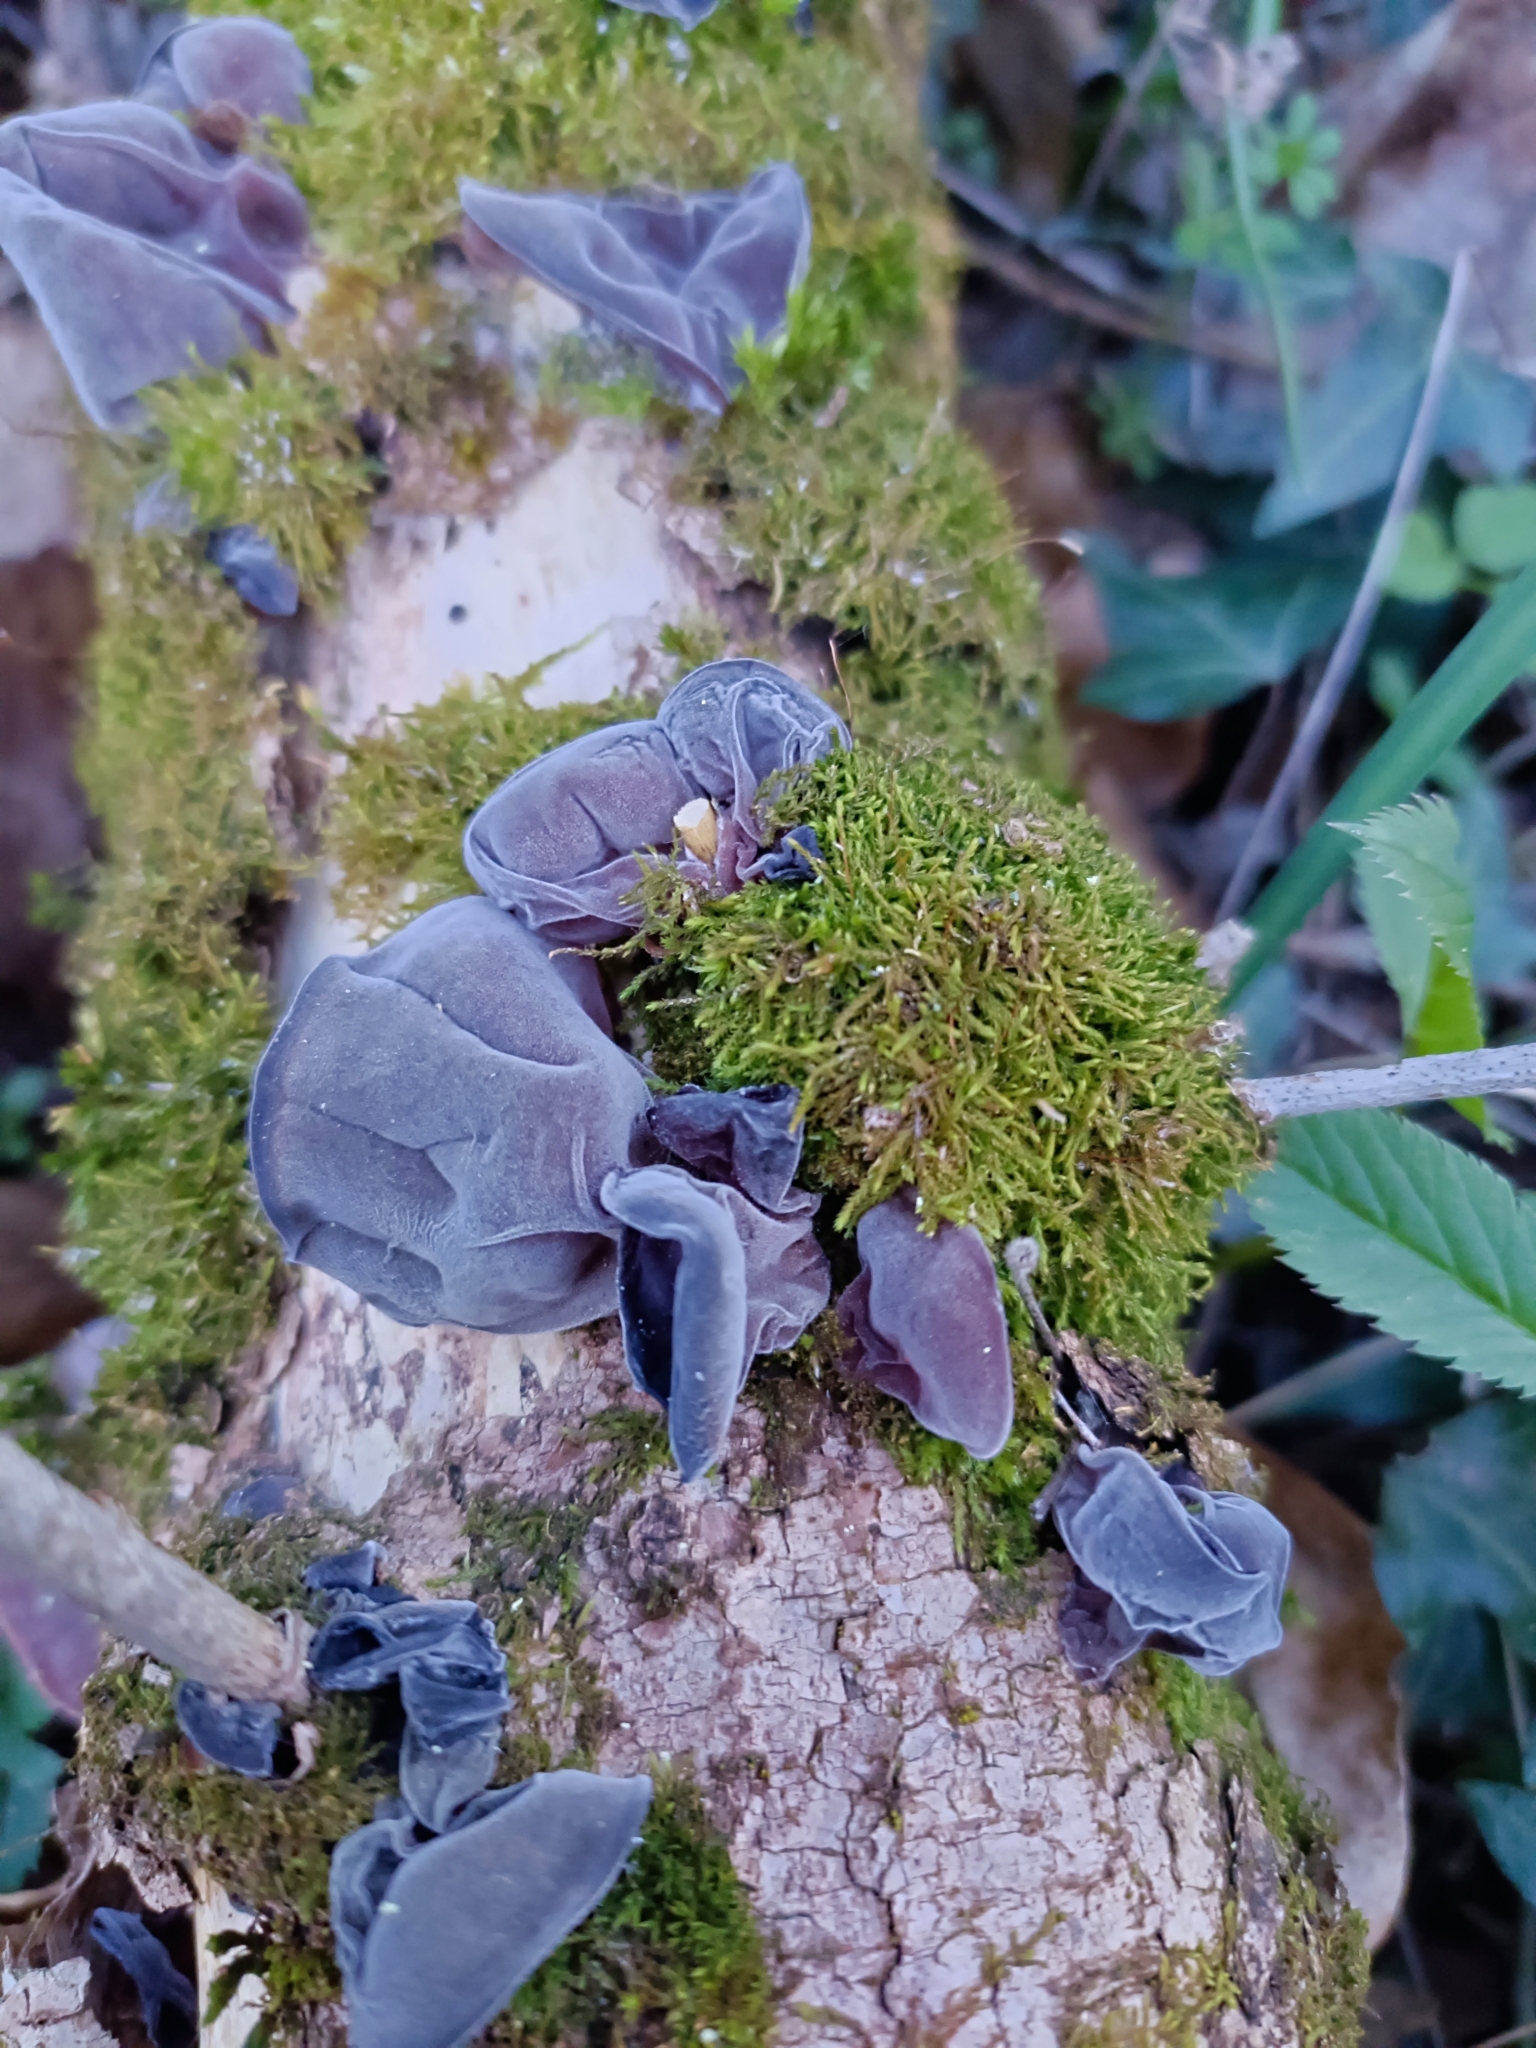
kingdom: Fungi
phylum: Basidiomycota
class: Agaricomycetes
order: Auriculariales
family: Auriculariaceae
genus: Auricularia
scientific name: Auricularia auricula-judae
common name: Jelly ear
